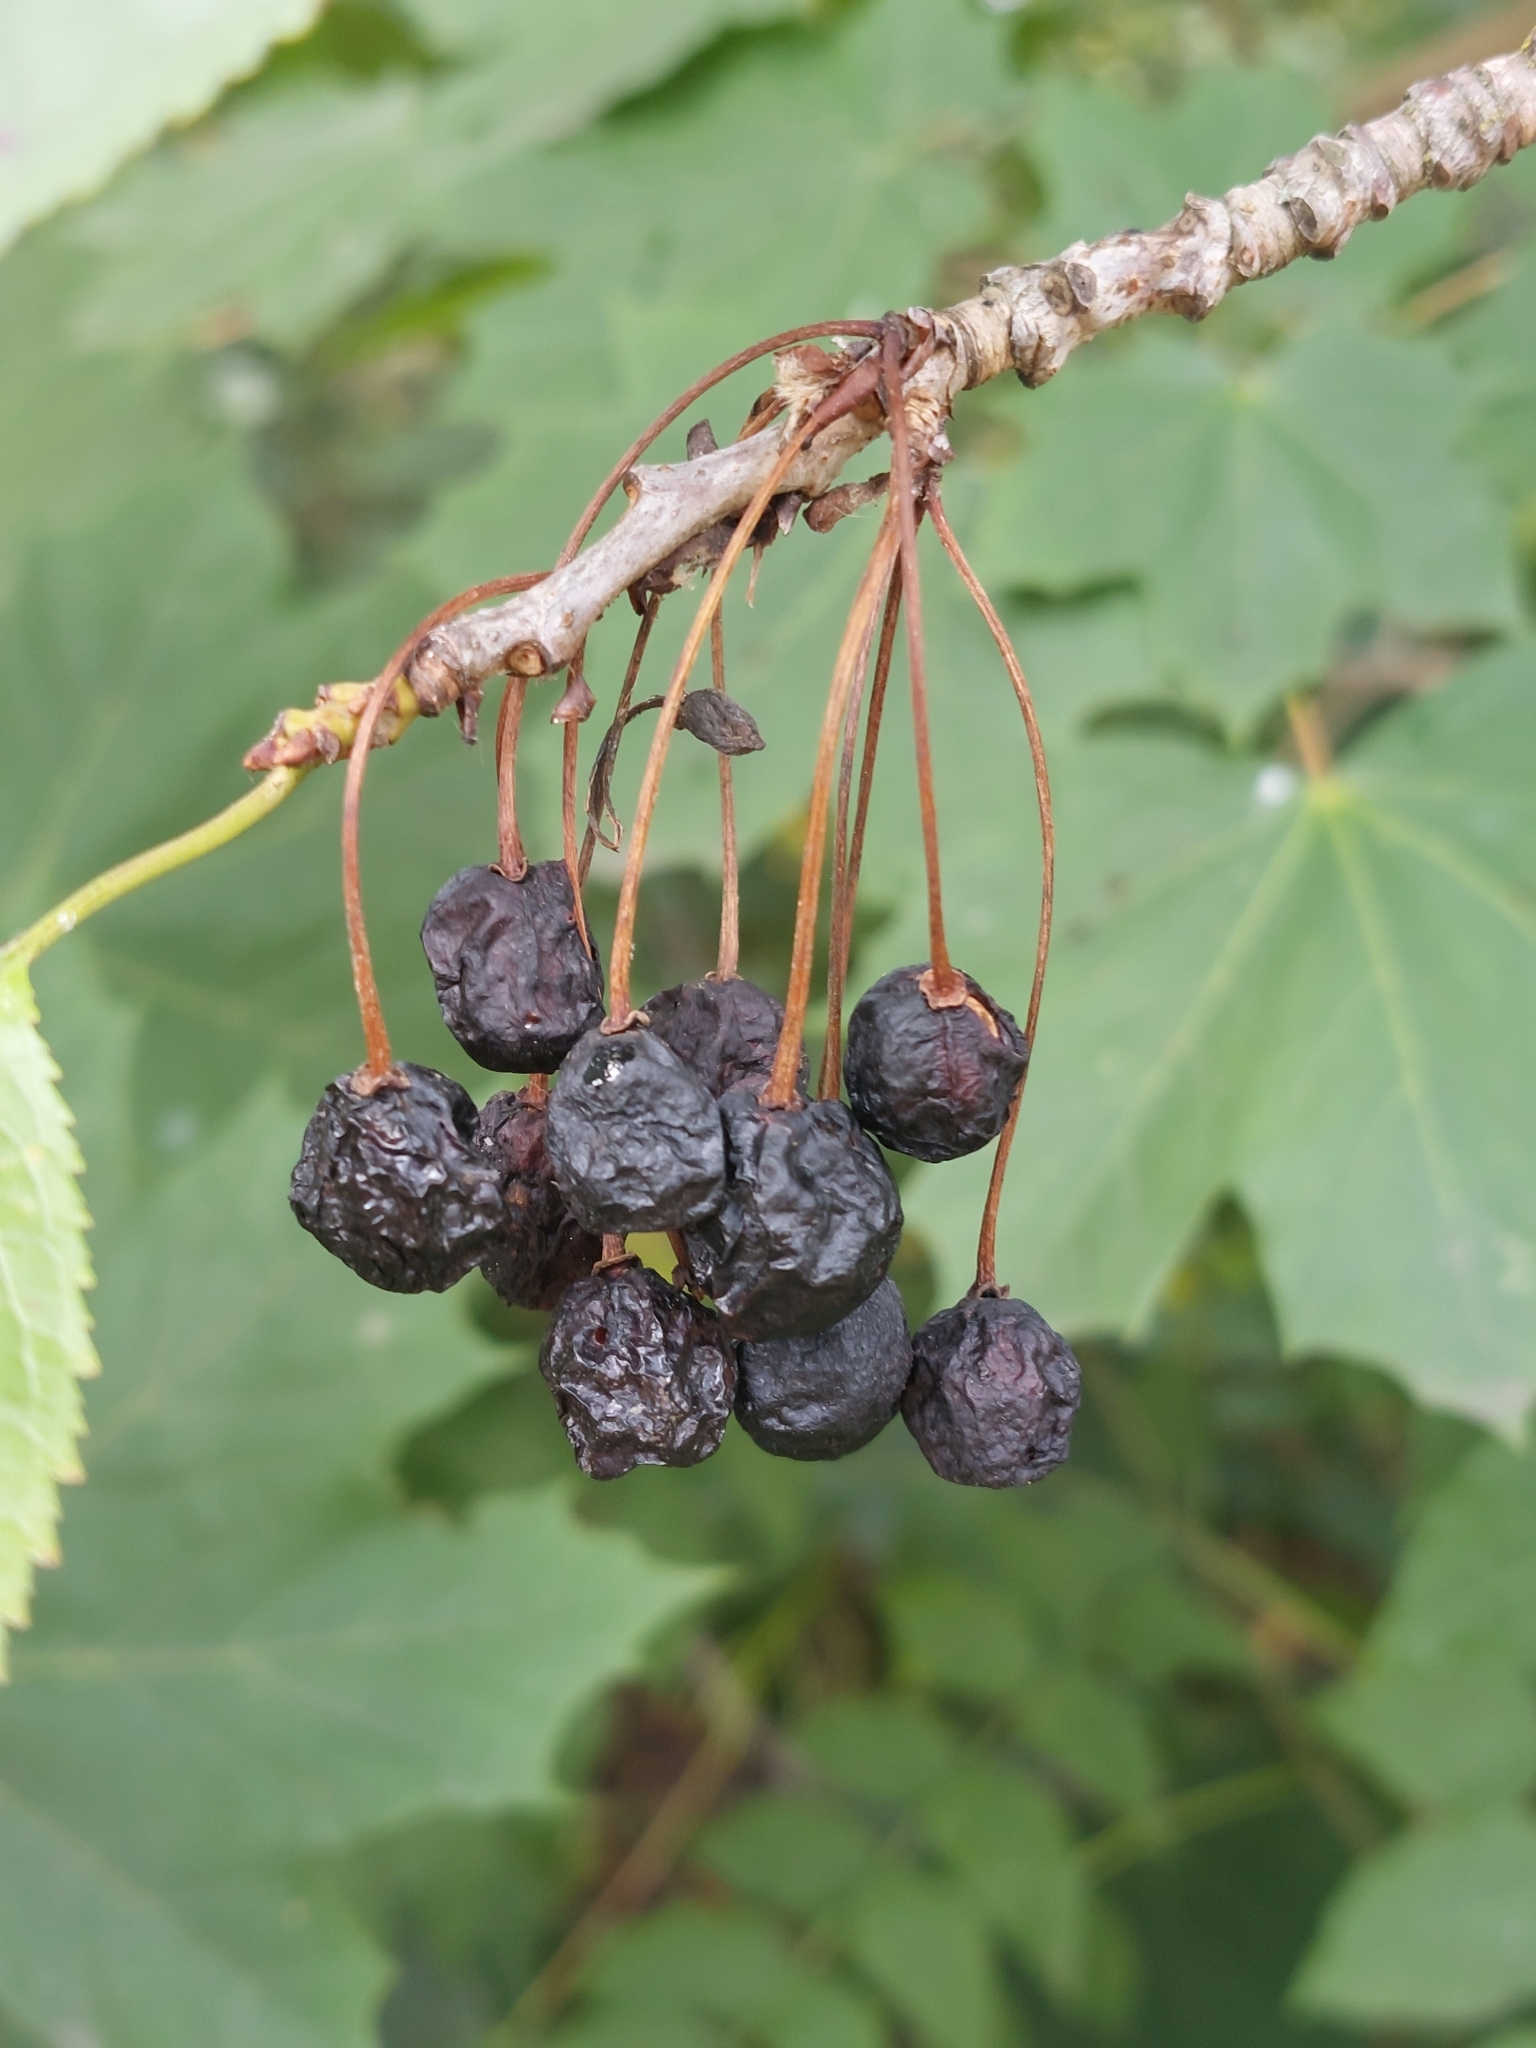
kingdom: Plantae
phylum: Tracheophyta
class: Magnoliopsida
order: Rosales
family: Rosaceae
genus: Prunus
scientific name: Prunus avium
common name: Sweet cherry
